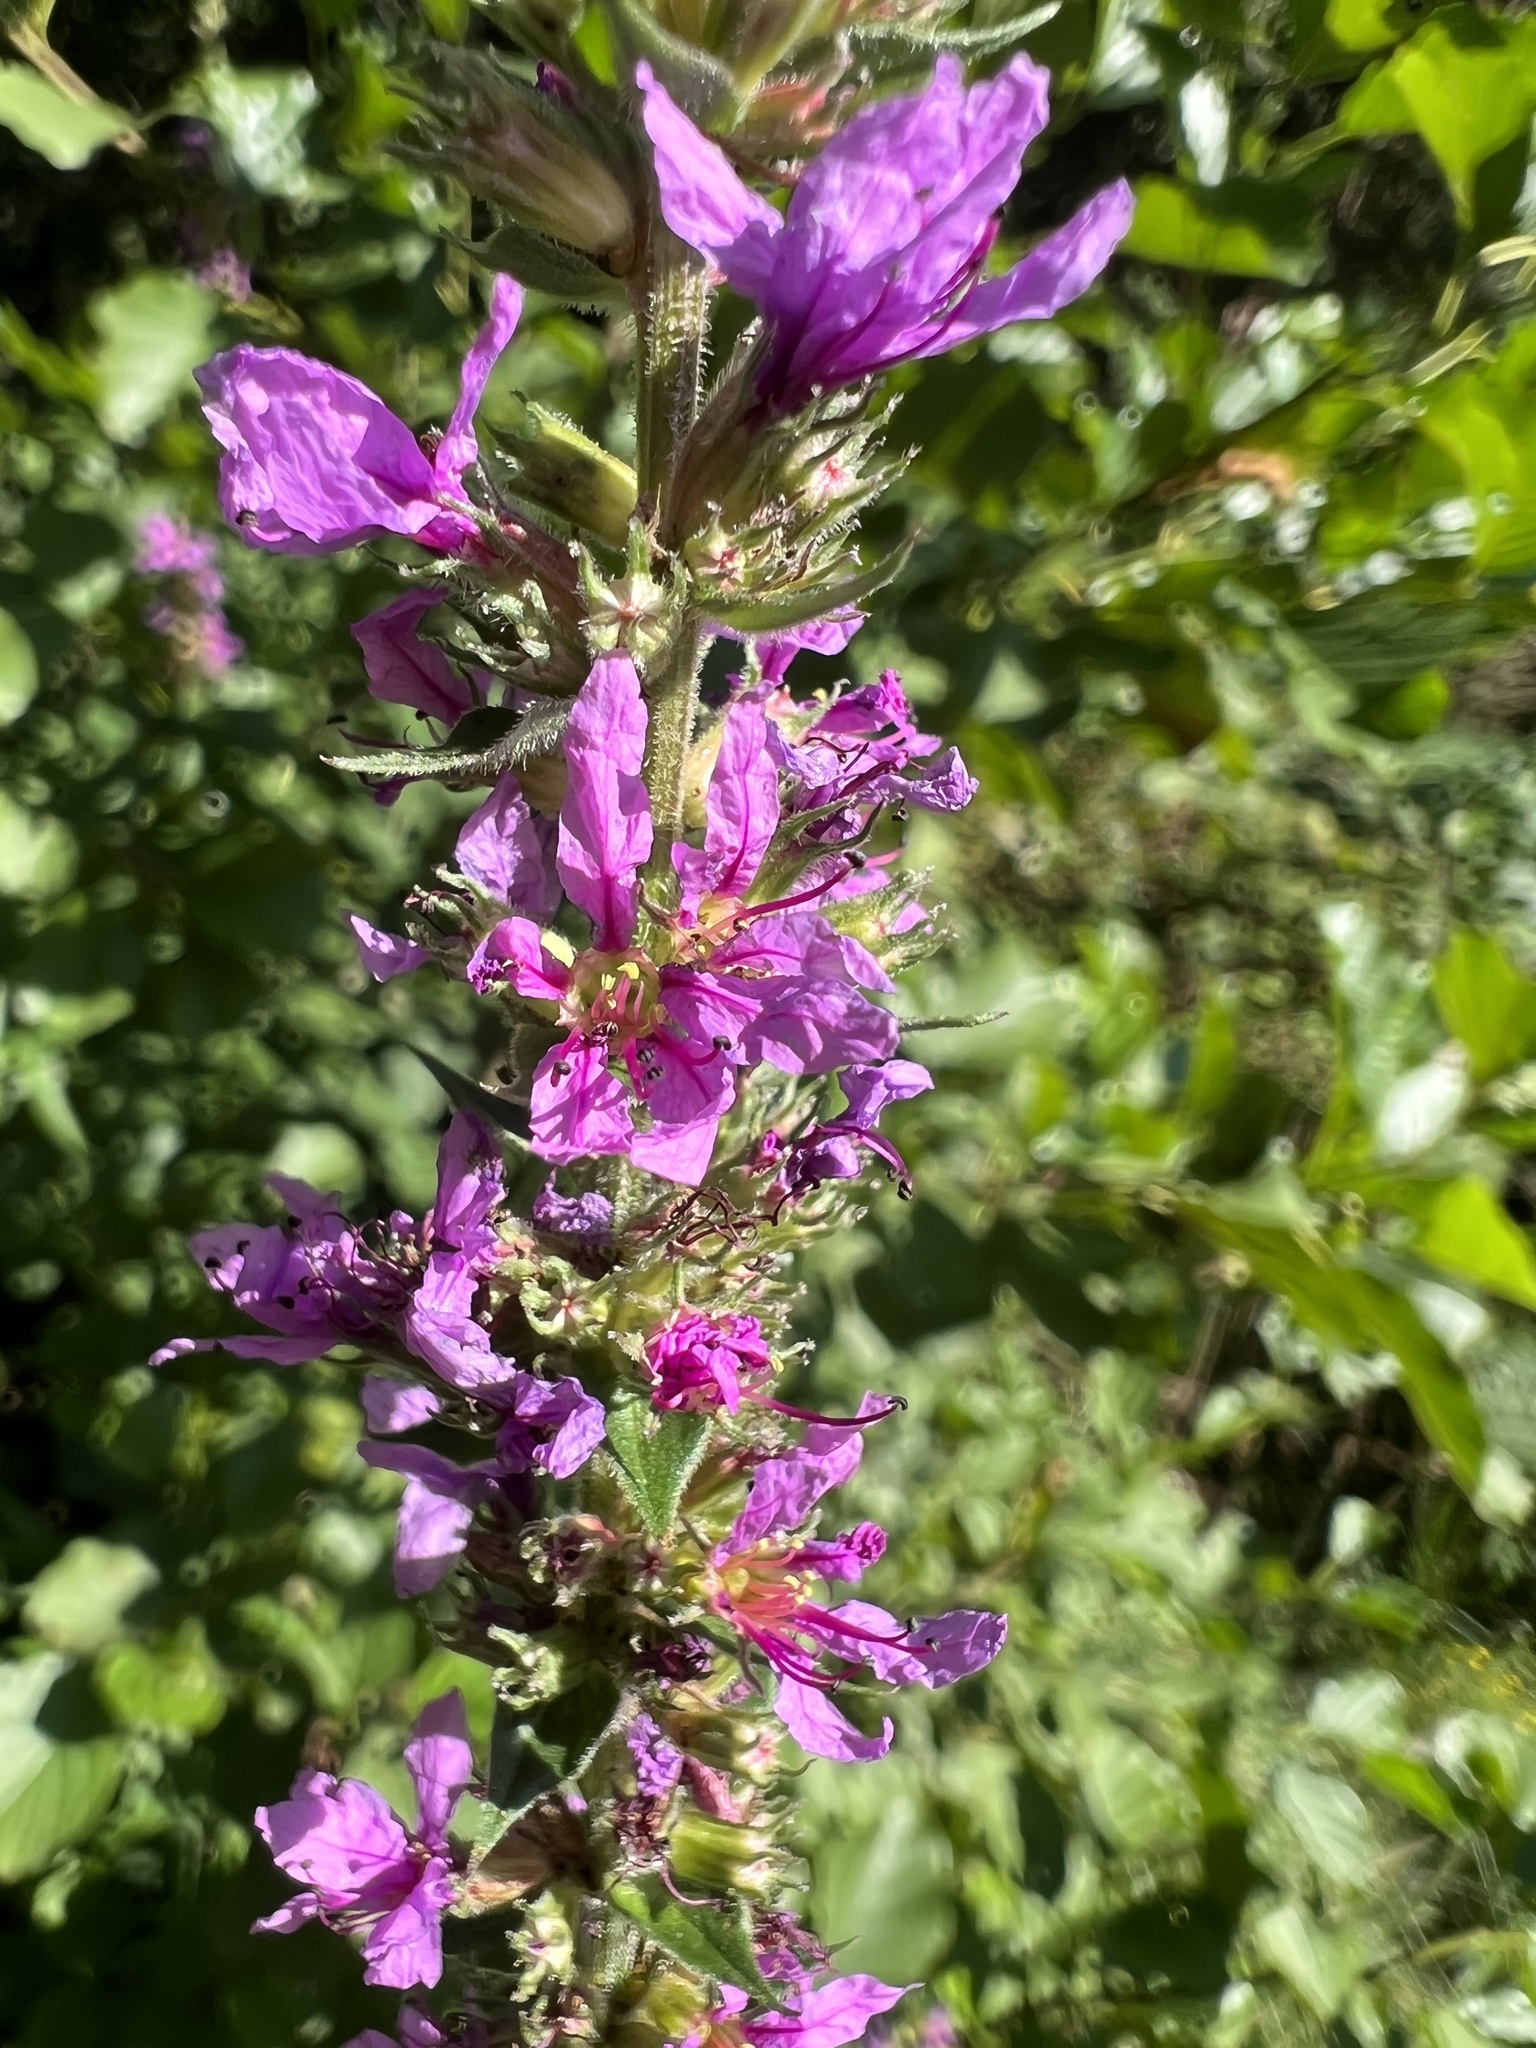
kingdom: Plantae
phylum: Tracheophyta
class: Magnoliopsida
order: Myrtales
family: Lythraceae
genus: Lythrum
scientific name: Lythrum salicaria
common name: Purple loosestrife
